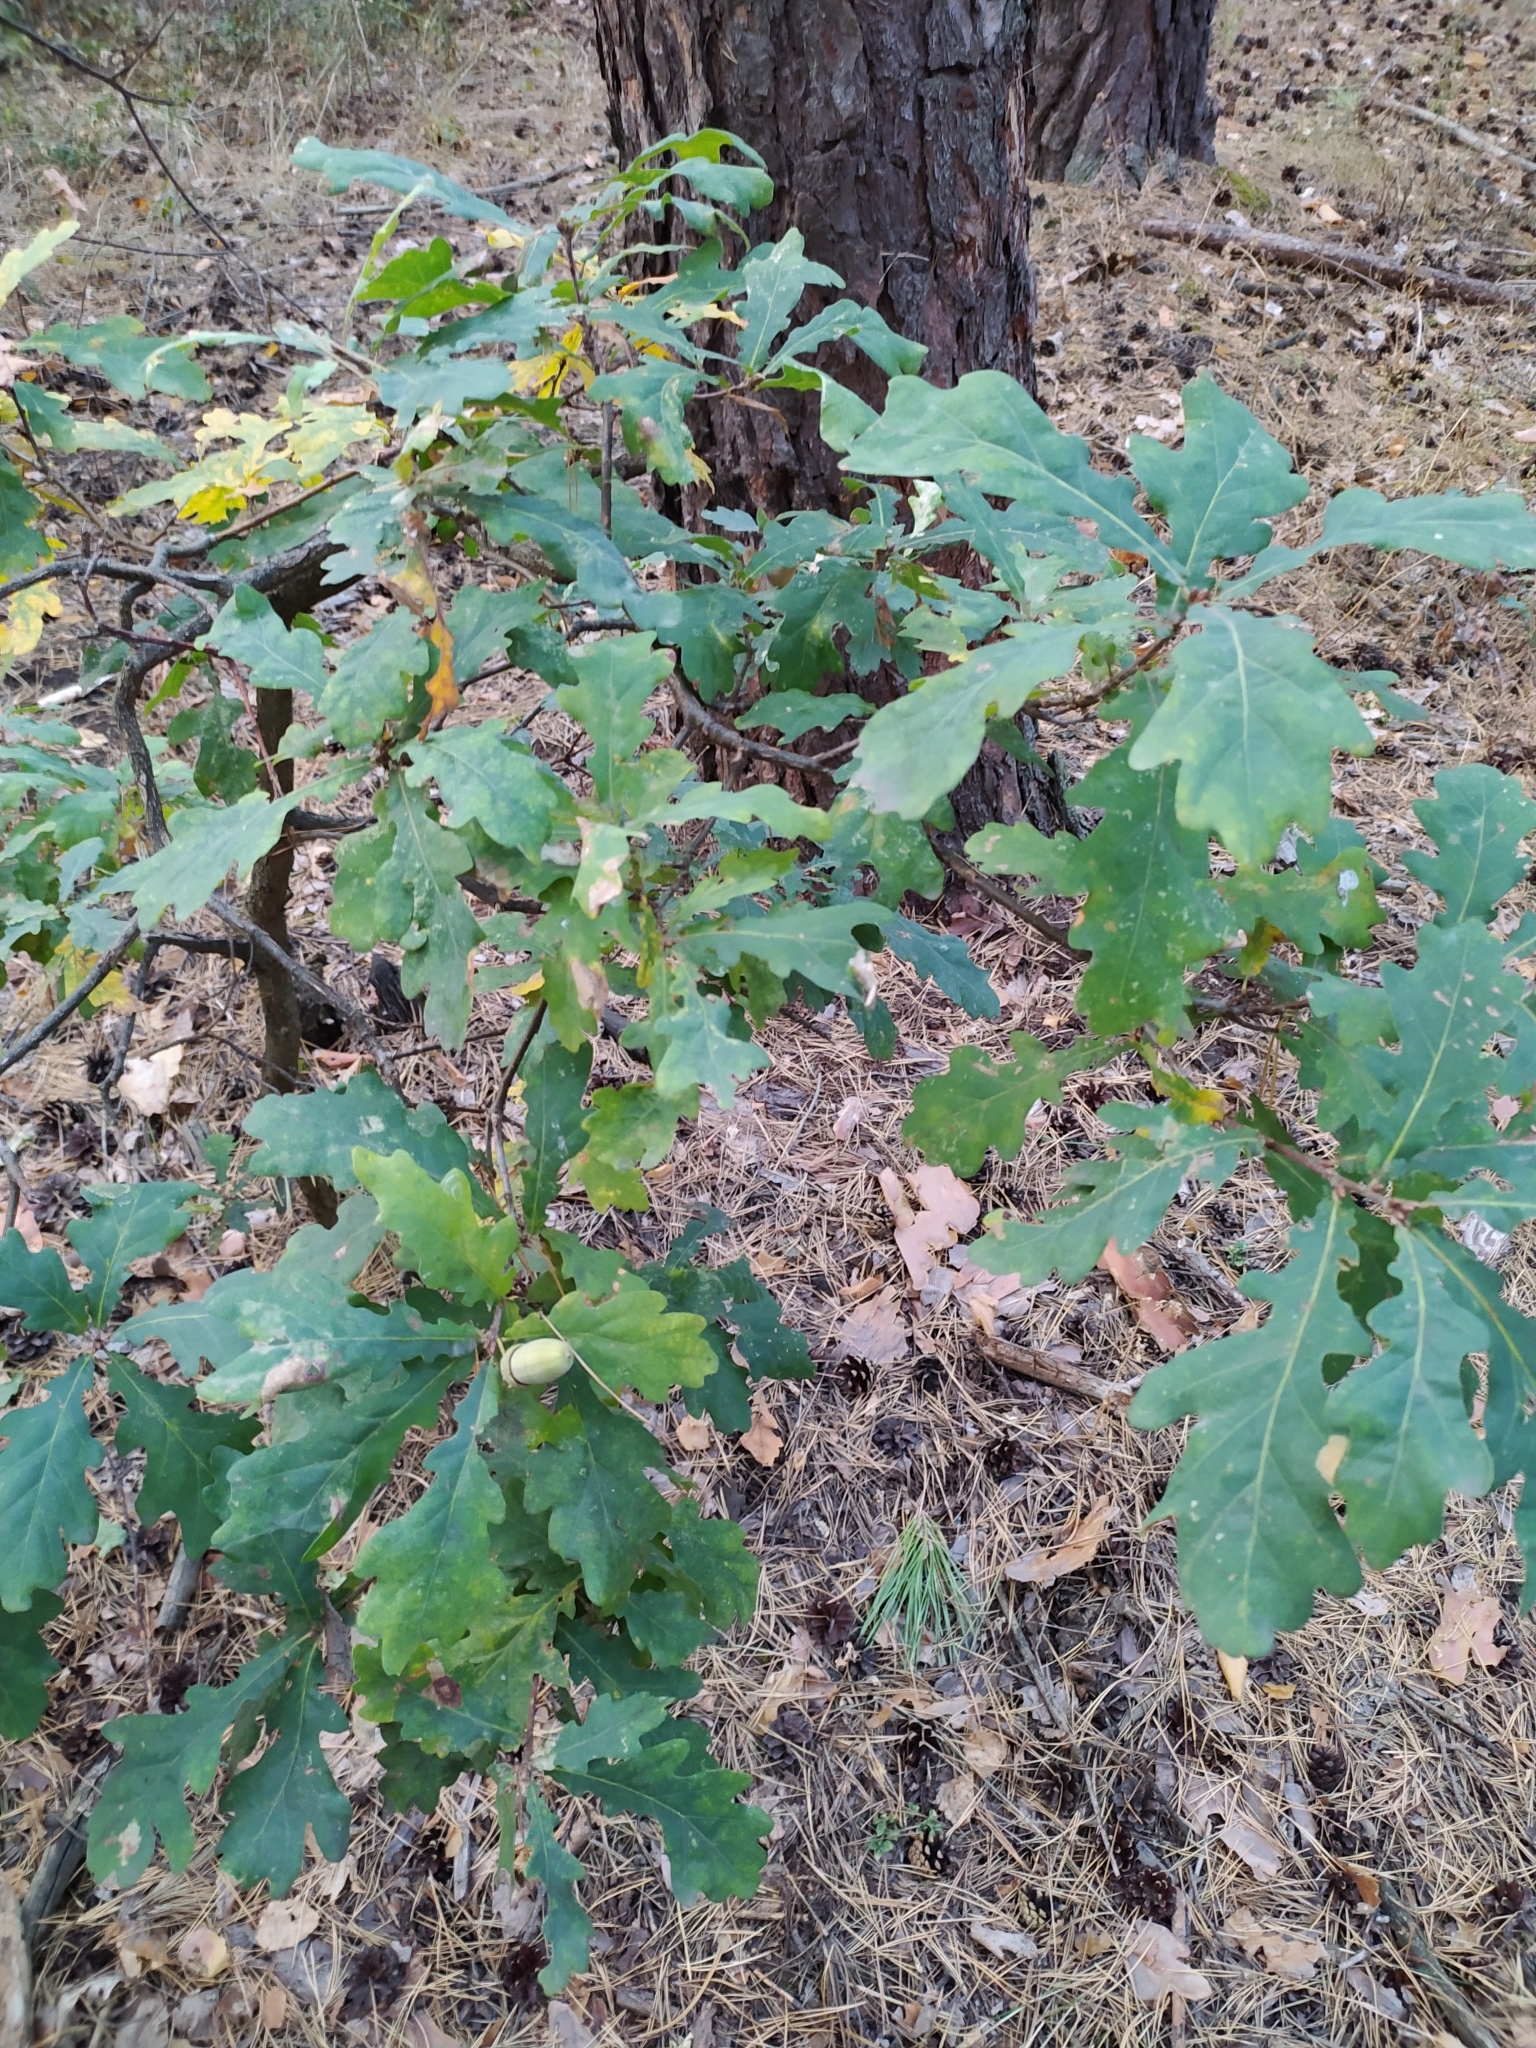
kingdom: Plantae
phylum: Tracheophyta
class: Magnoliopsida
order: Fagales
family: Fagaceae
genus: Quercus
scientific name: Quercus robur
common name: Pedunculate oak
